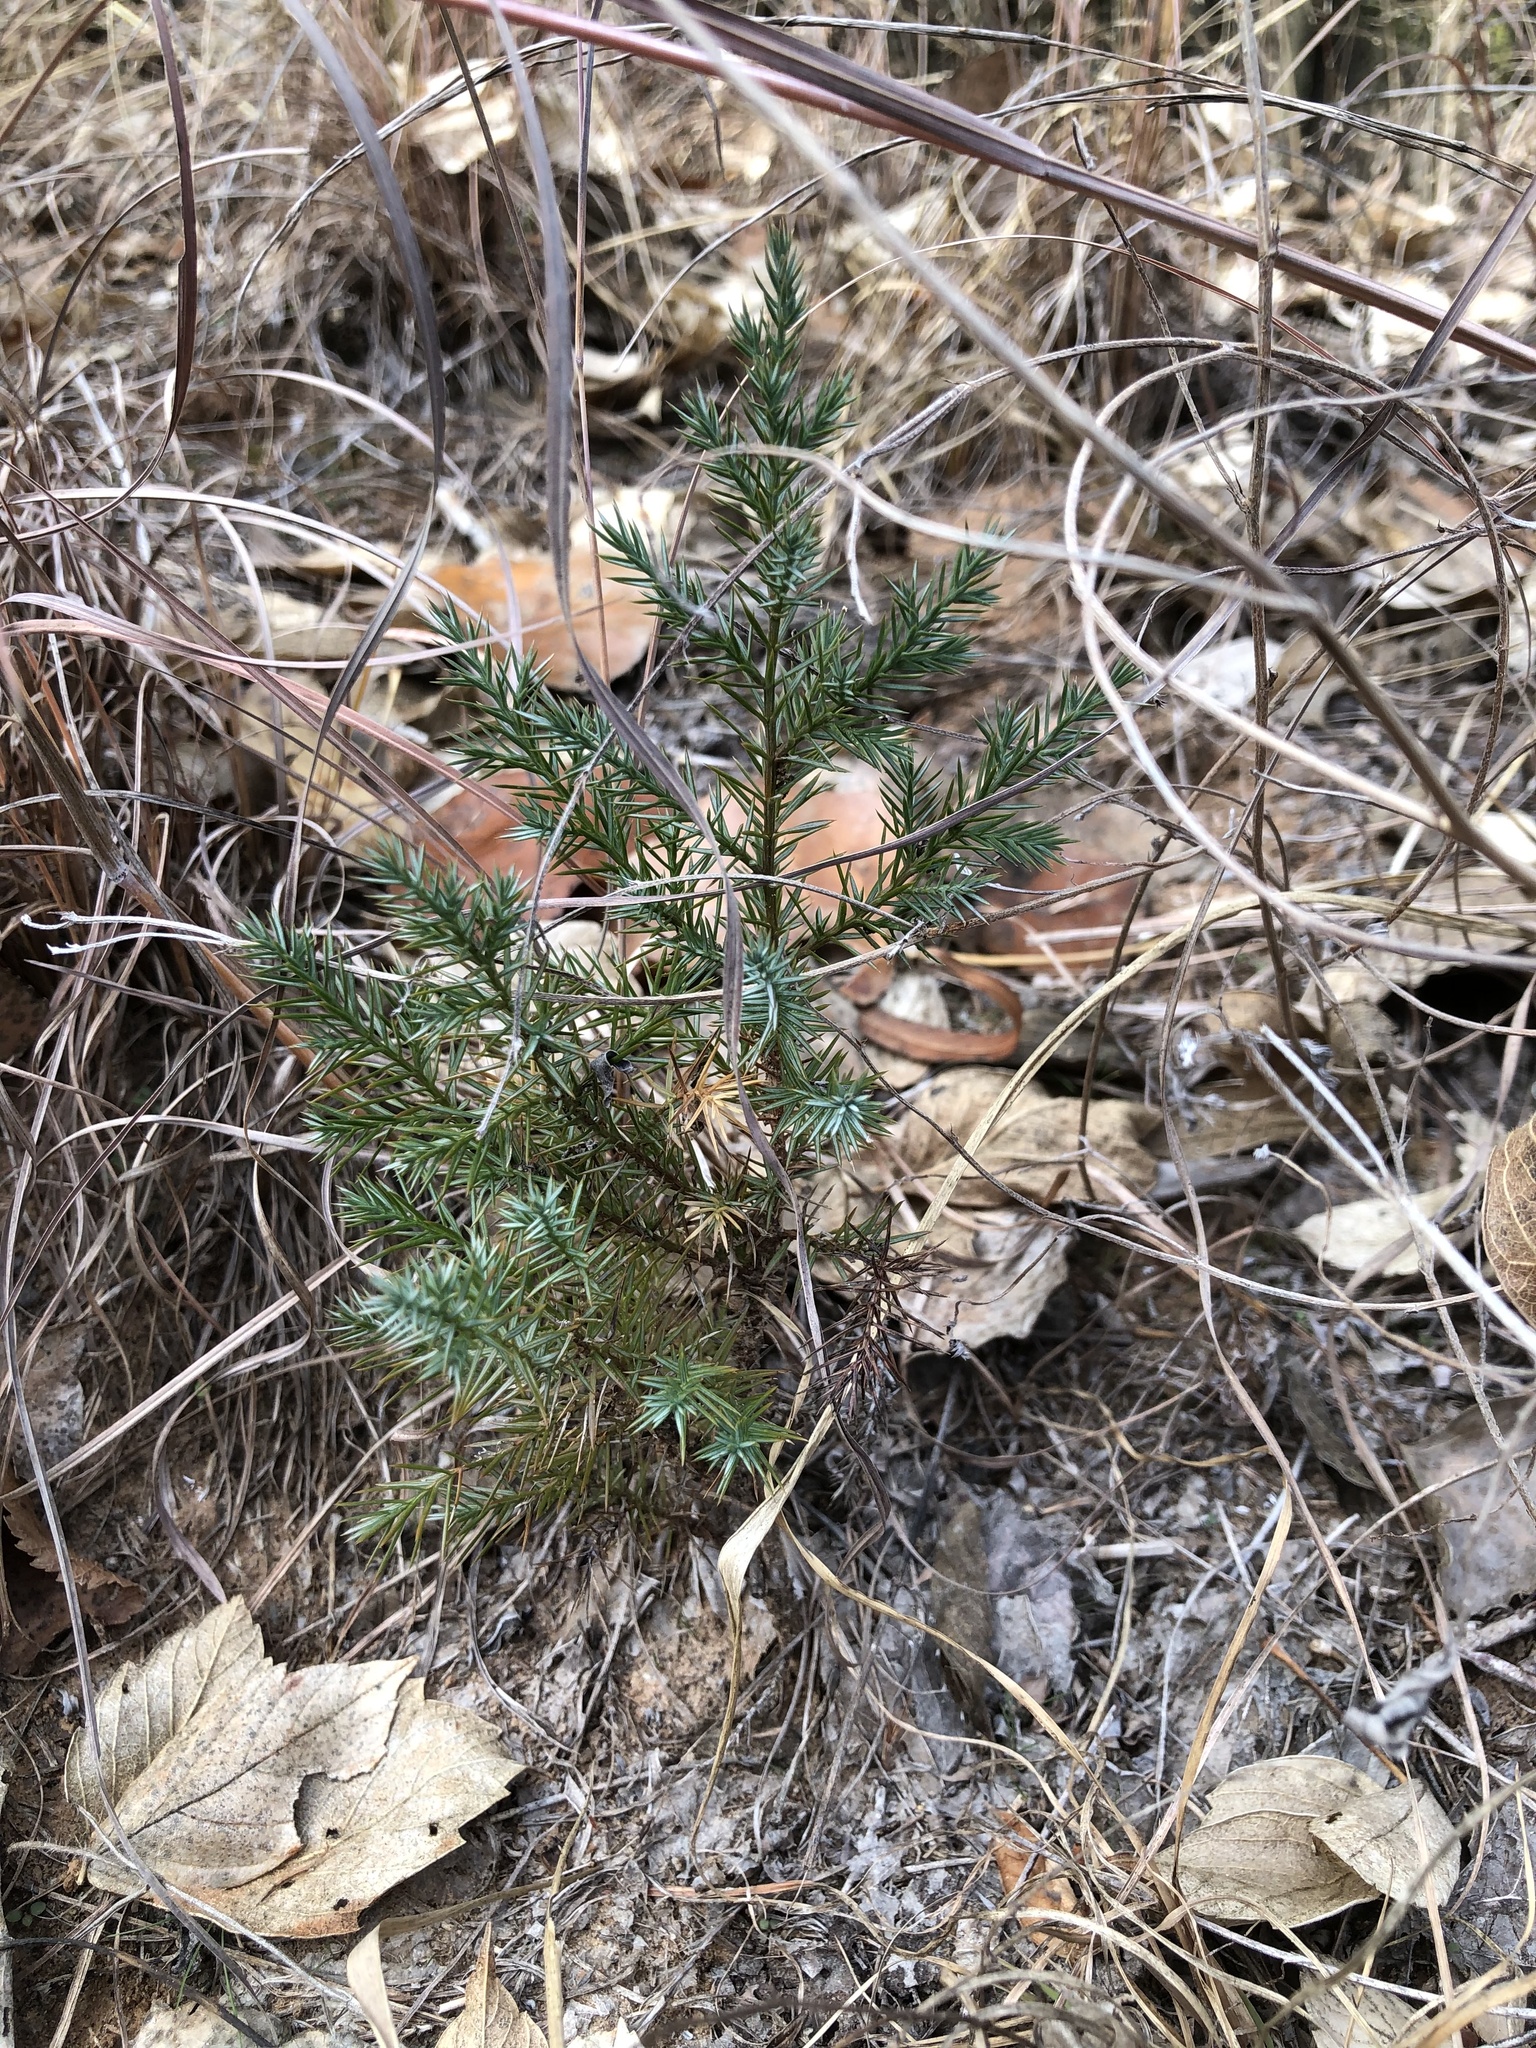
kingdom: Plantae
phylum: Tracheophyta
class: Pinopsida
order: Pinales
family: Cupressaceae
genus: Juniperus
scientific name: Juniperus virginiana
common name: Red juniper
